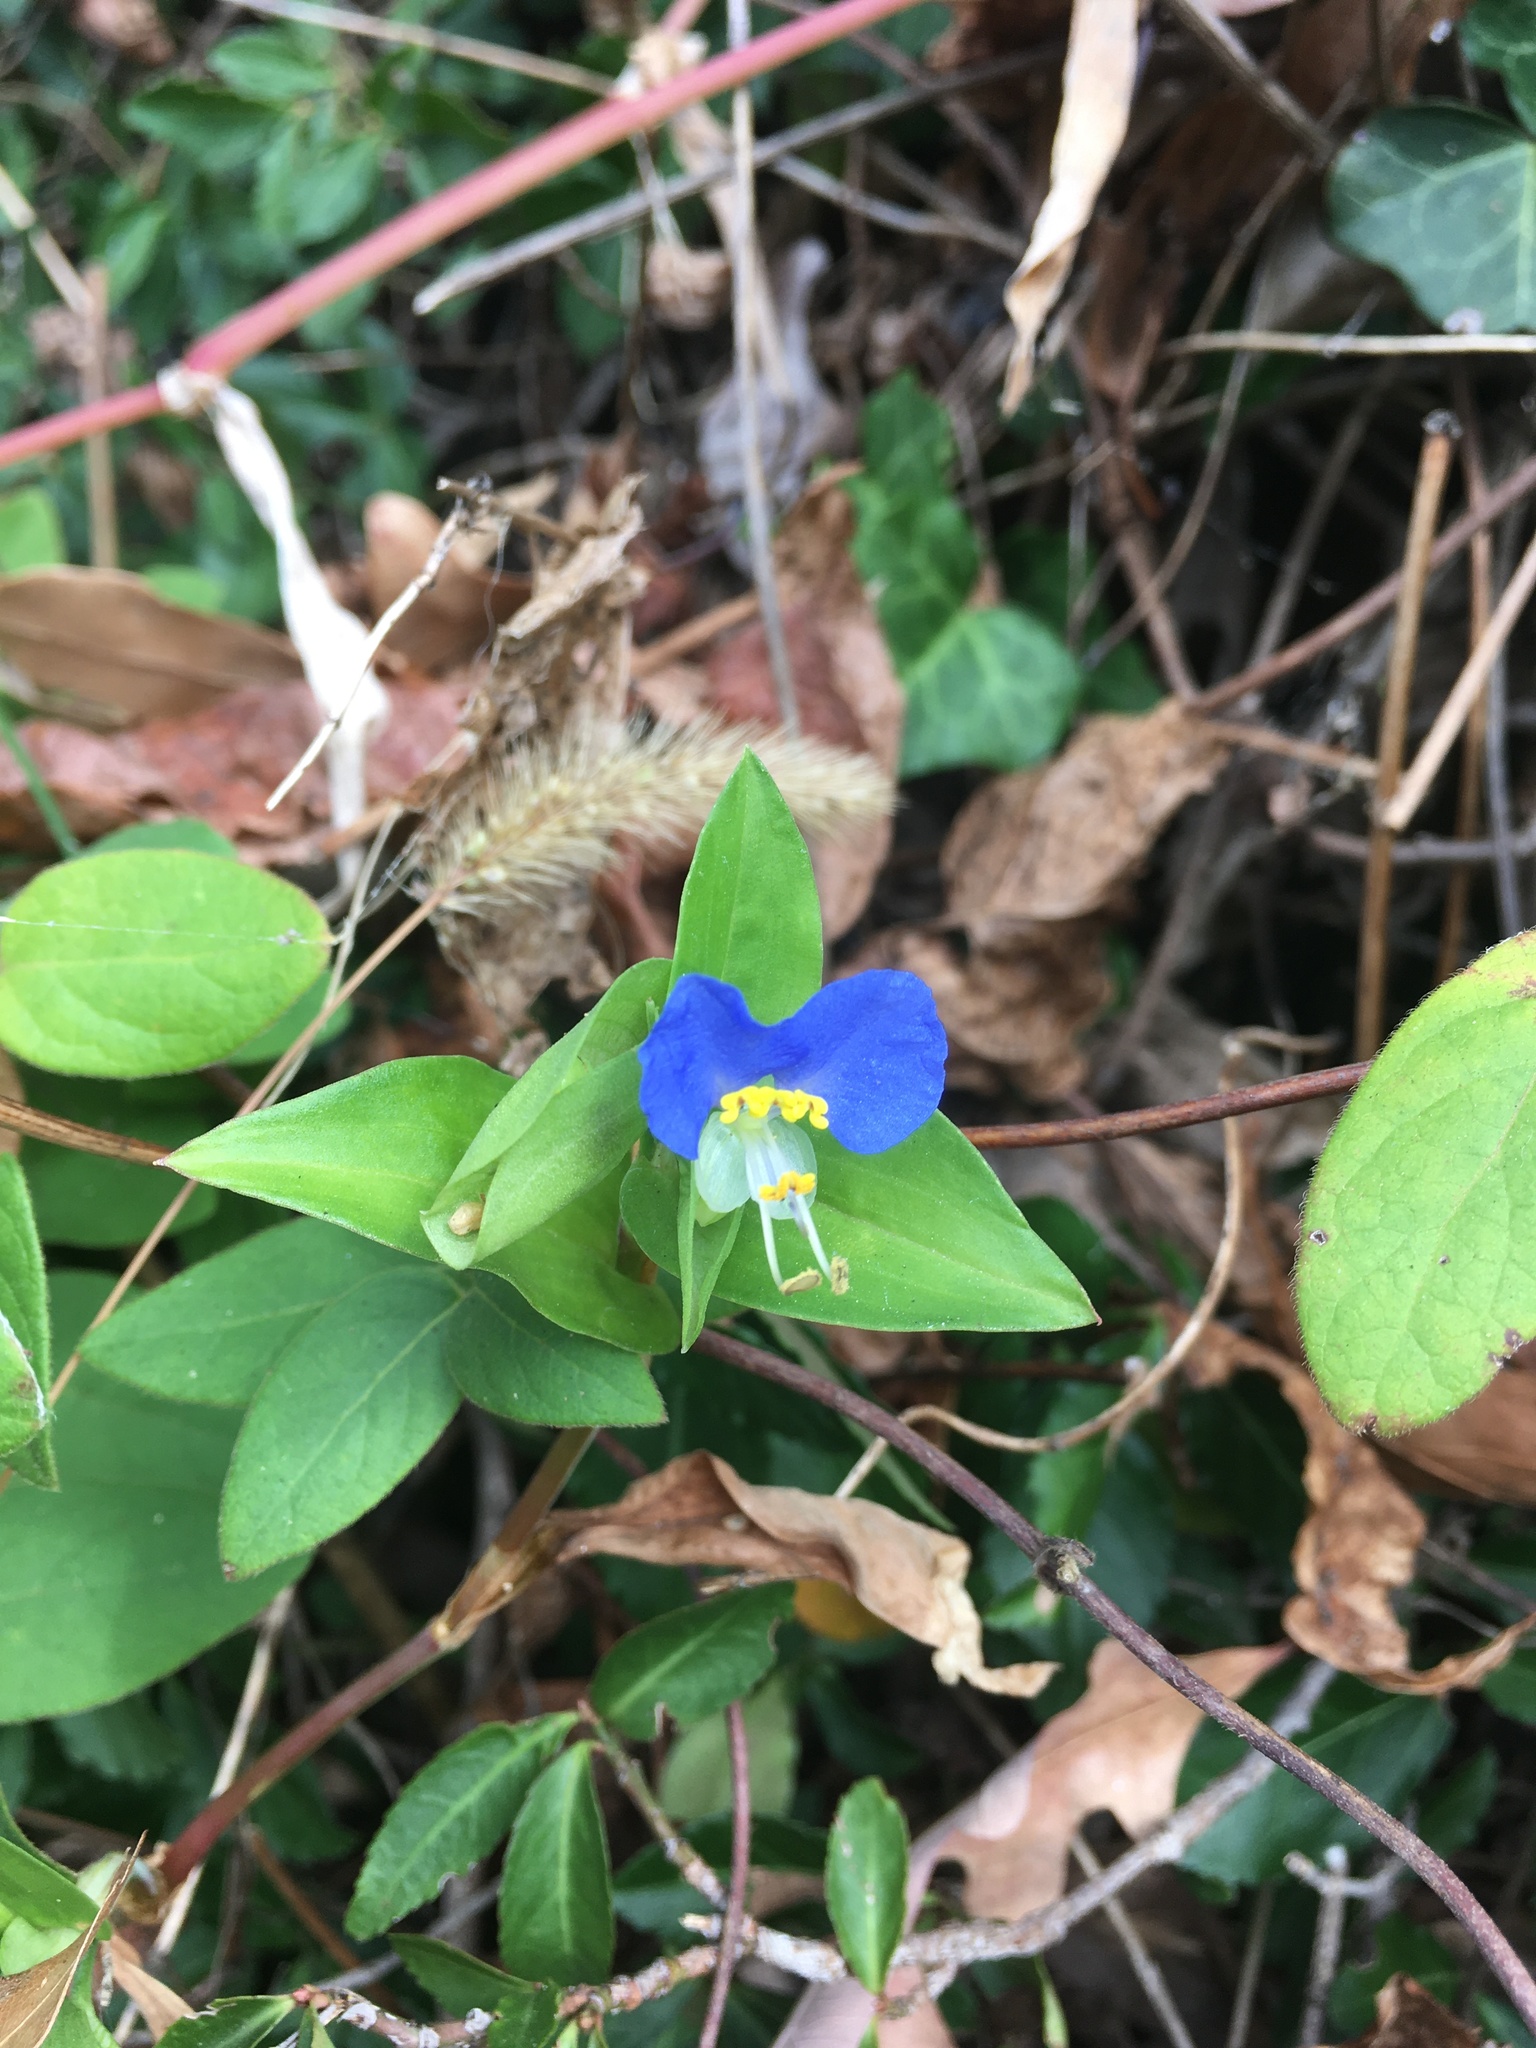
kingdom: Plantae
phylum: Tracheophyta
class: Liliopsida
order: Commelinales
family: Commelinaceae
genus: Commelina
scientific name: Commelina communis
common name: Asiatic dayflower
